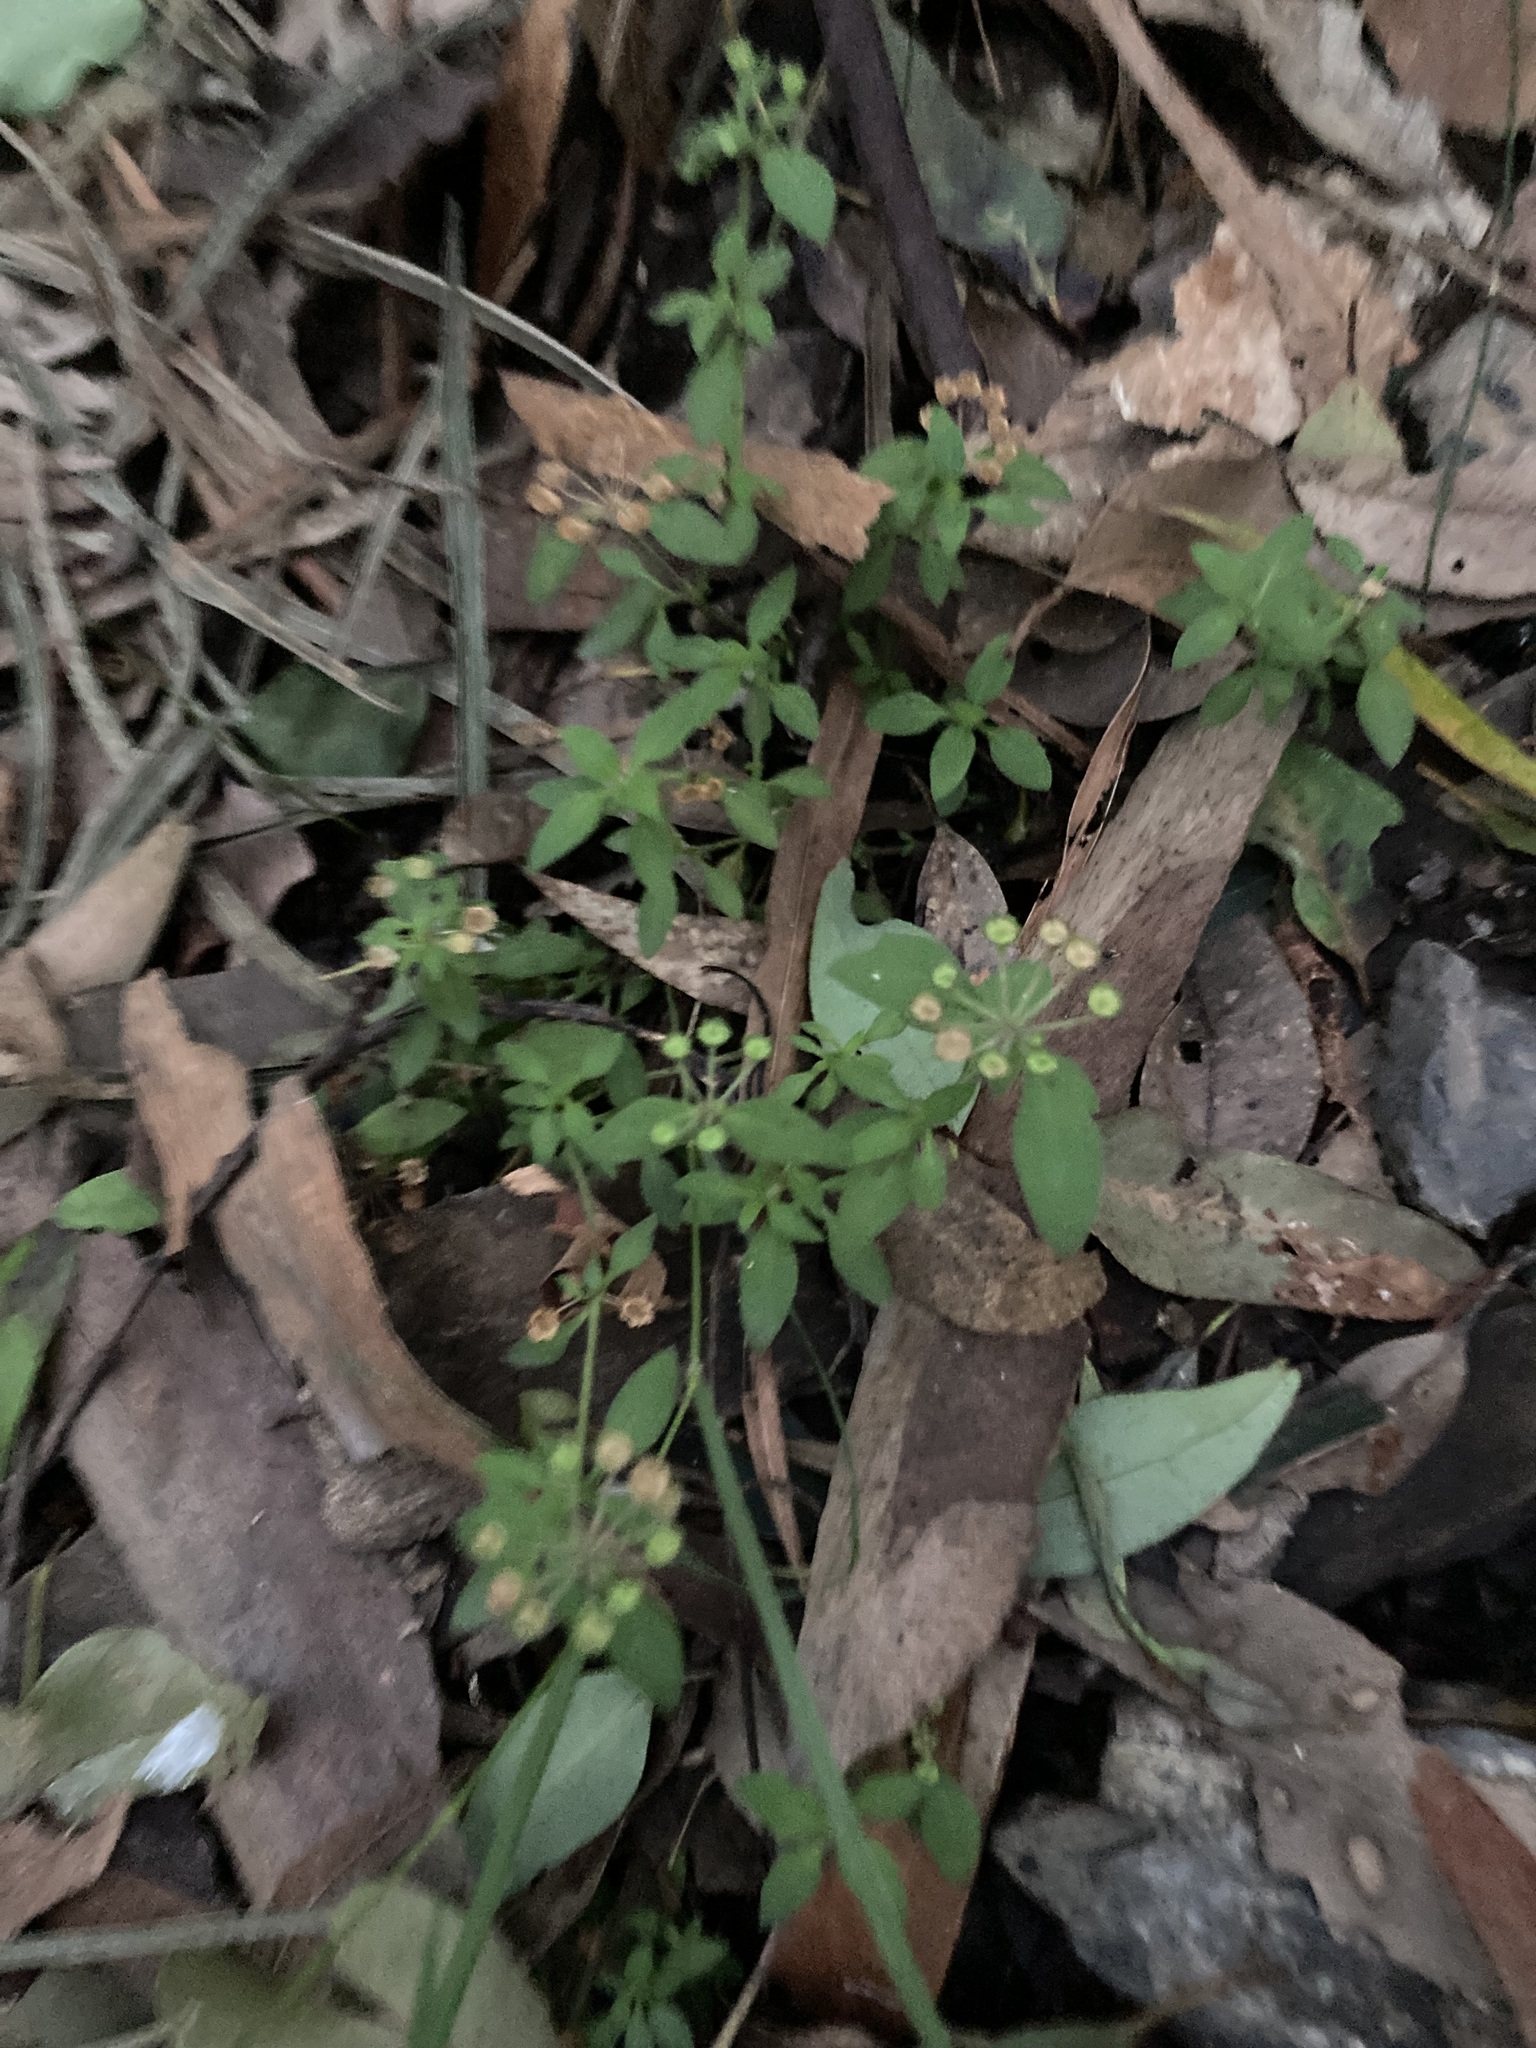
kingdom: Plantae
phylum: Tracheophyta
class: Magnoliopsida
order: Gentianales
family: Rubiaceae
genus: Pomax
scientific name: Pomax umbellata
